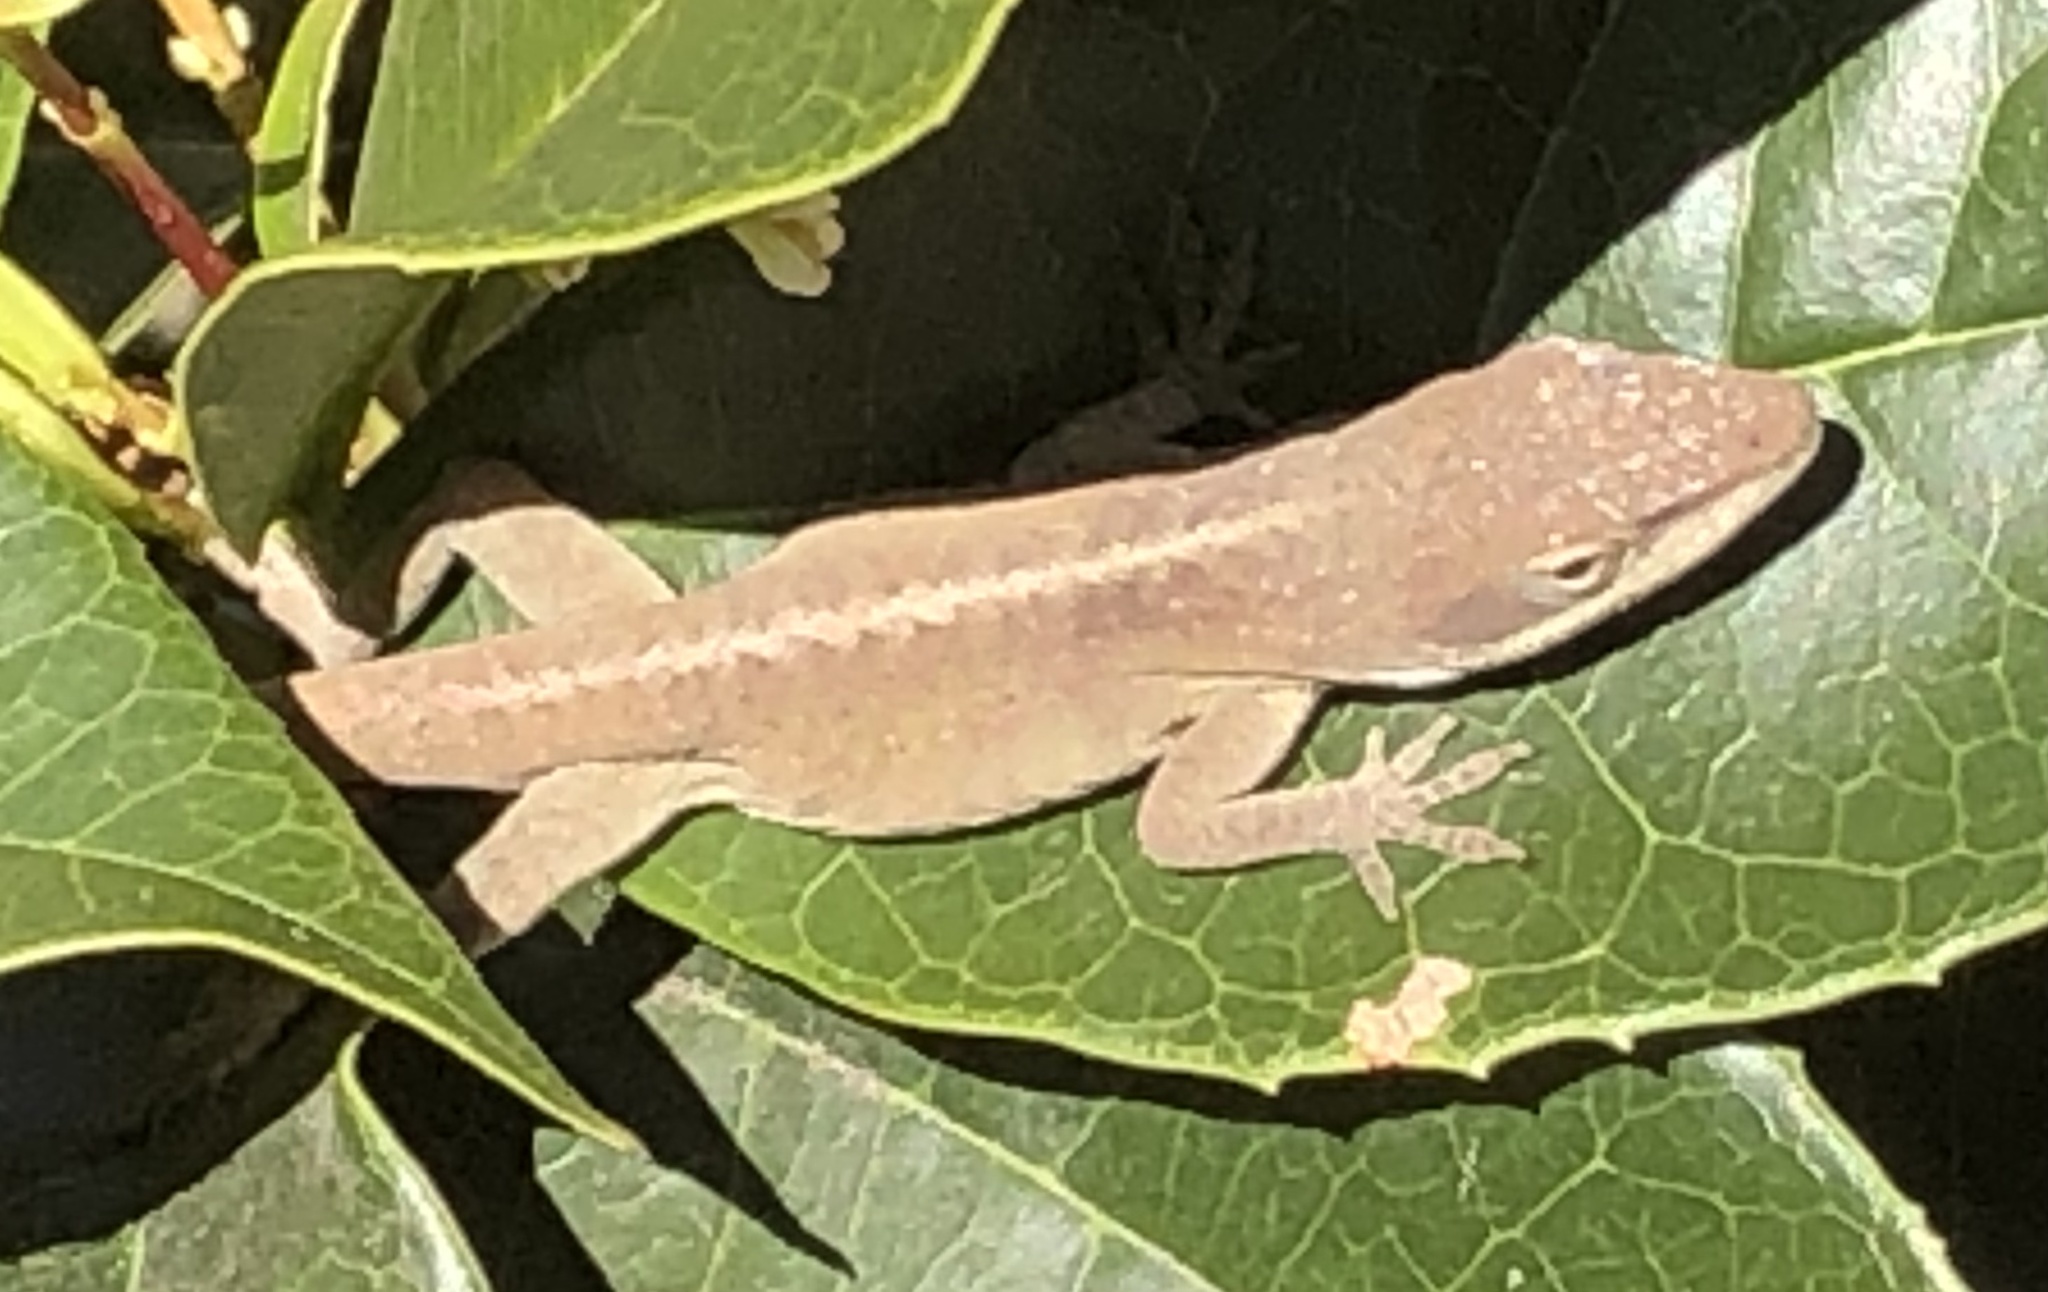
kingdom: Animalia
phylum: Chordata
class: Squamata
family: Dactyloidae
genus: Anolis
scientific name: Anolis carolinensis
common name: Green anole
